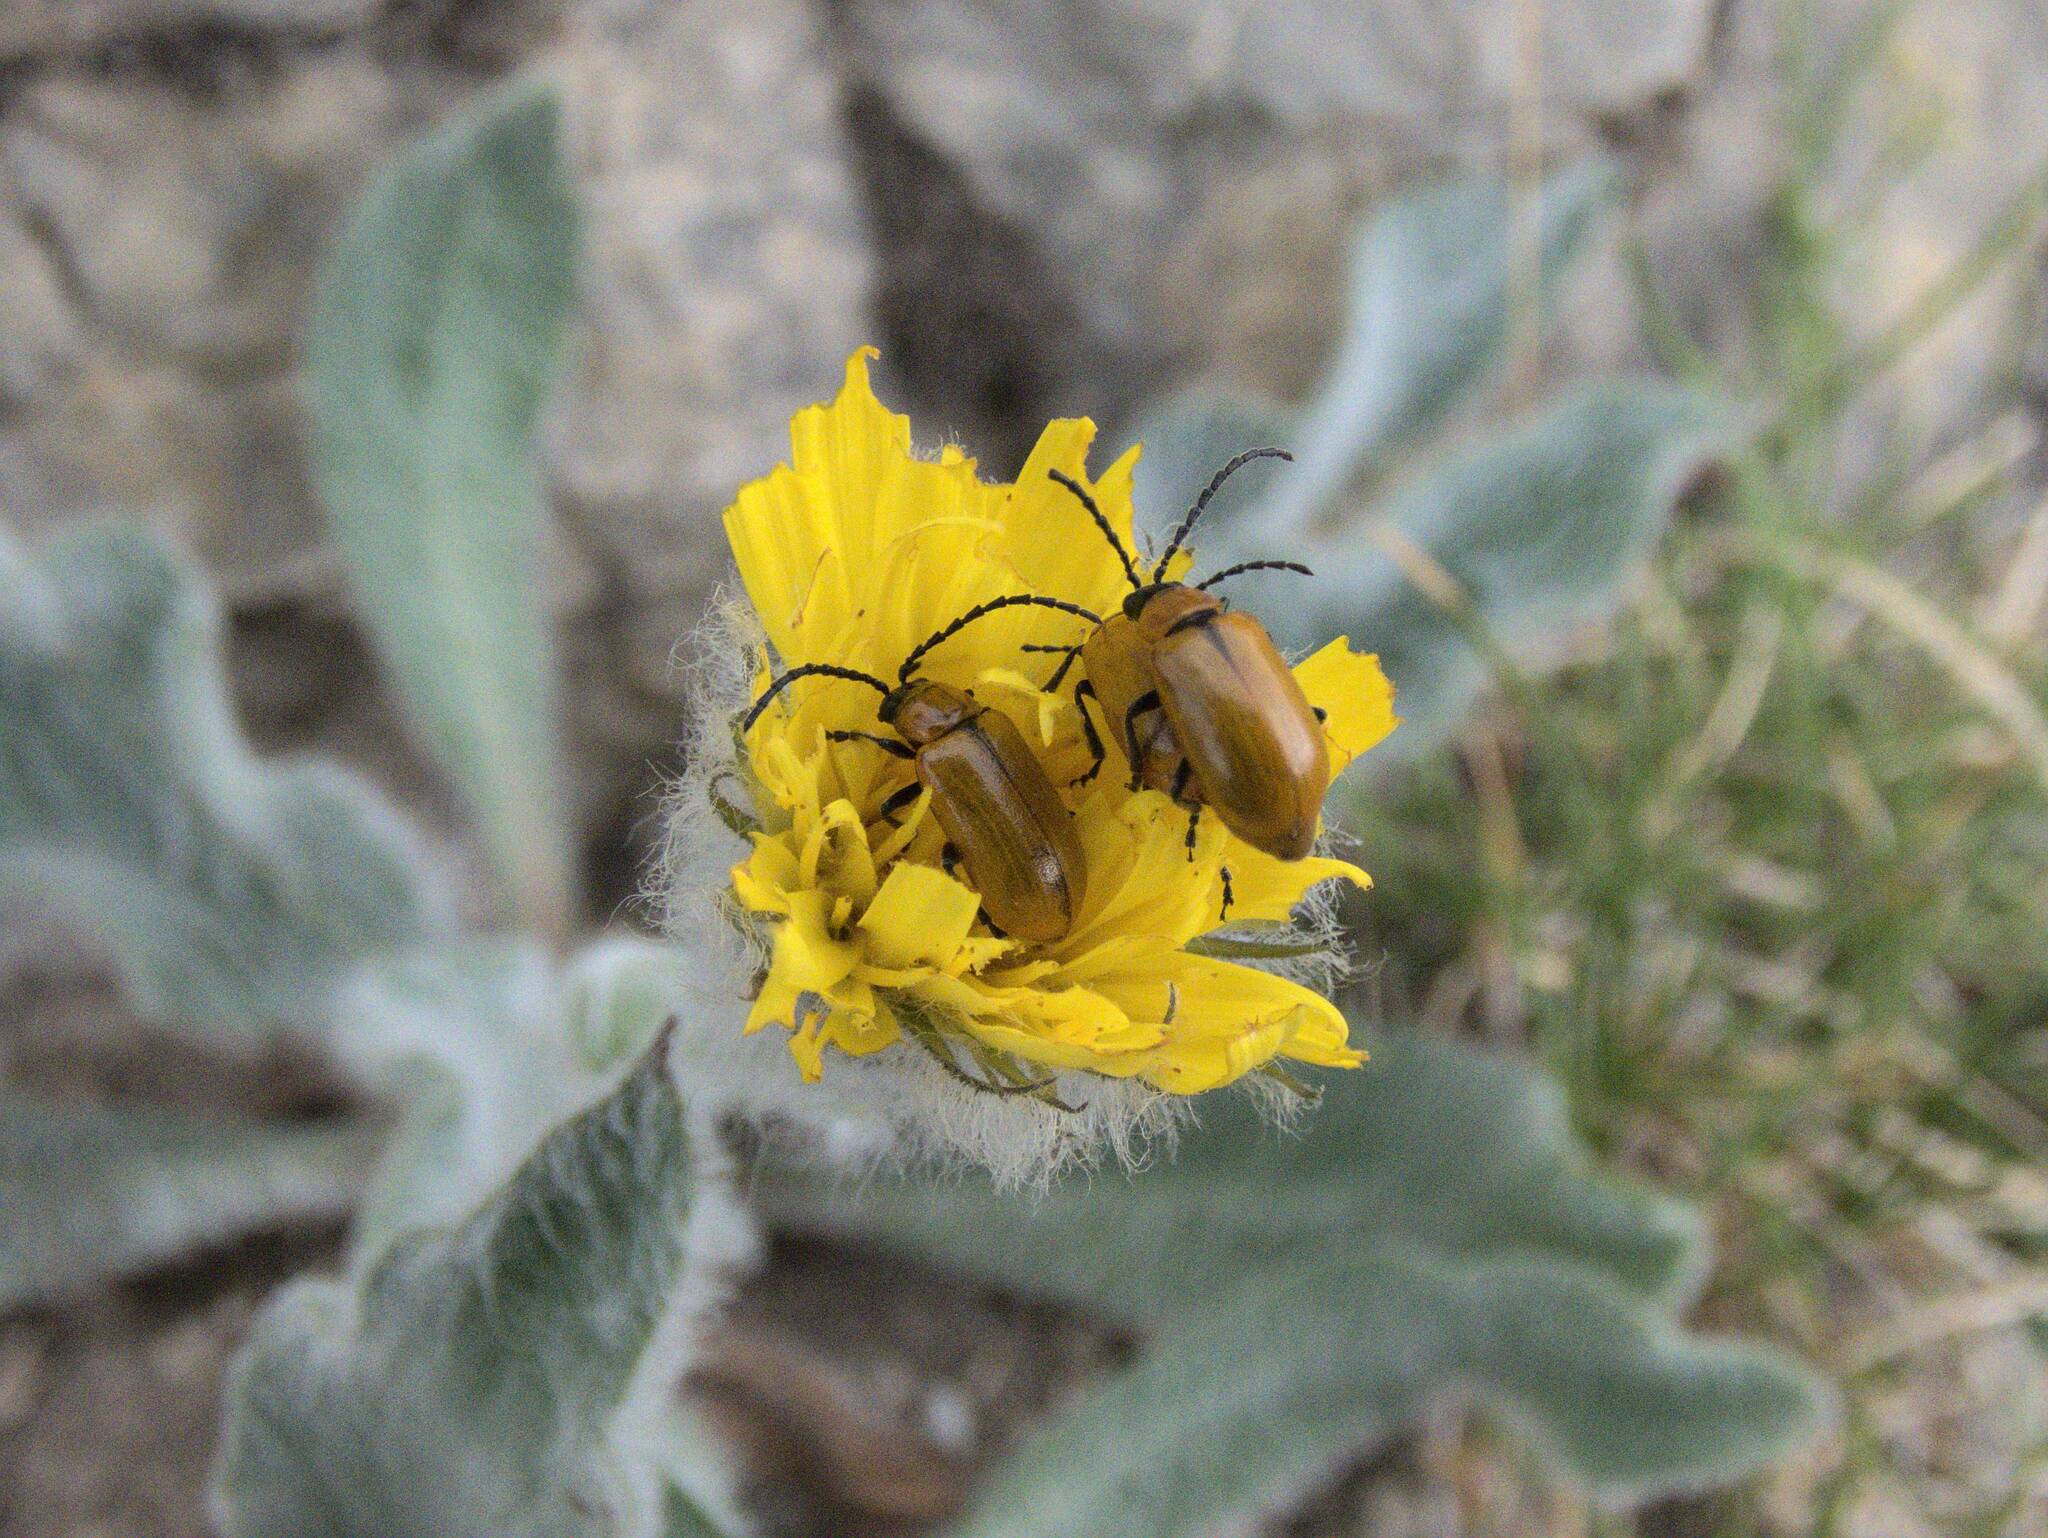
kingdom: Animalia
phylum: Arthropoda
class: Insecta
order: Coleoptera
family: Chrysomelidae
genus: Exosoma
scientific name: Exosoma lusitanicum
